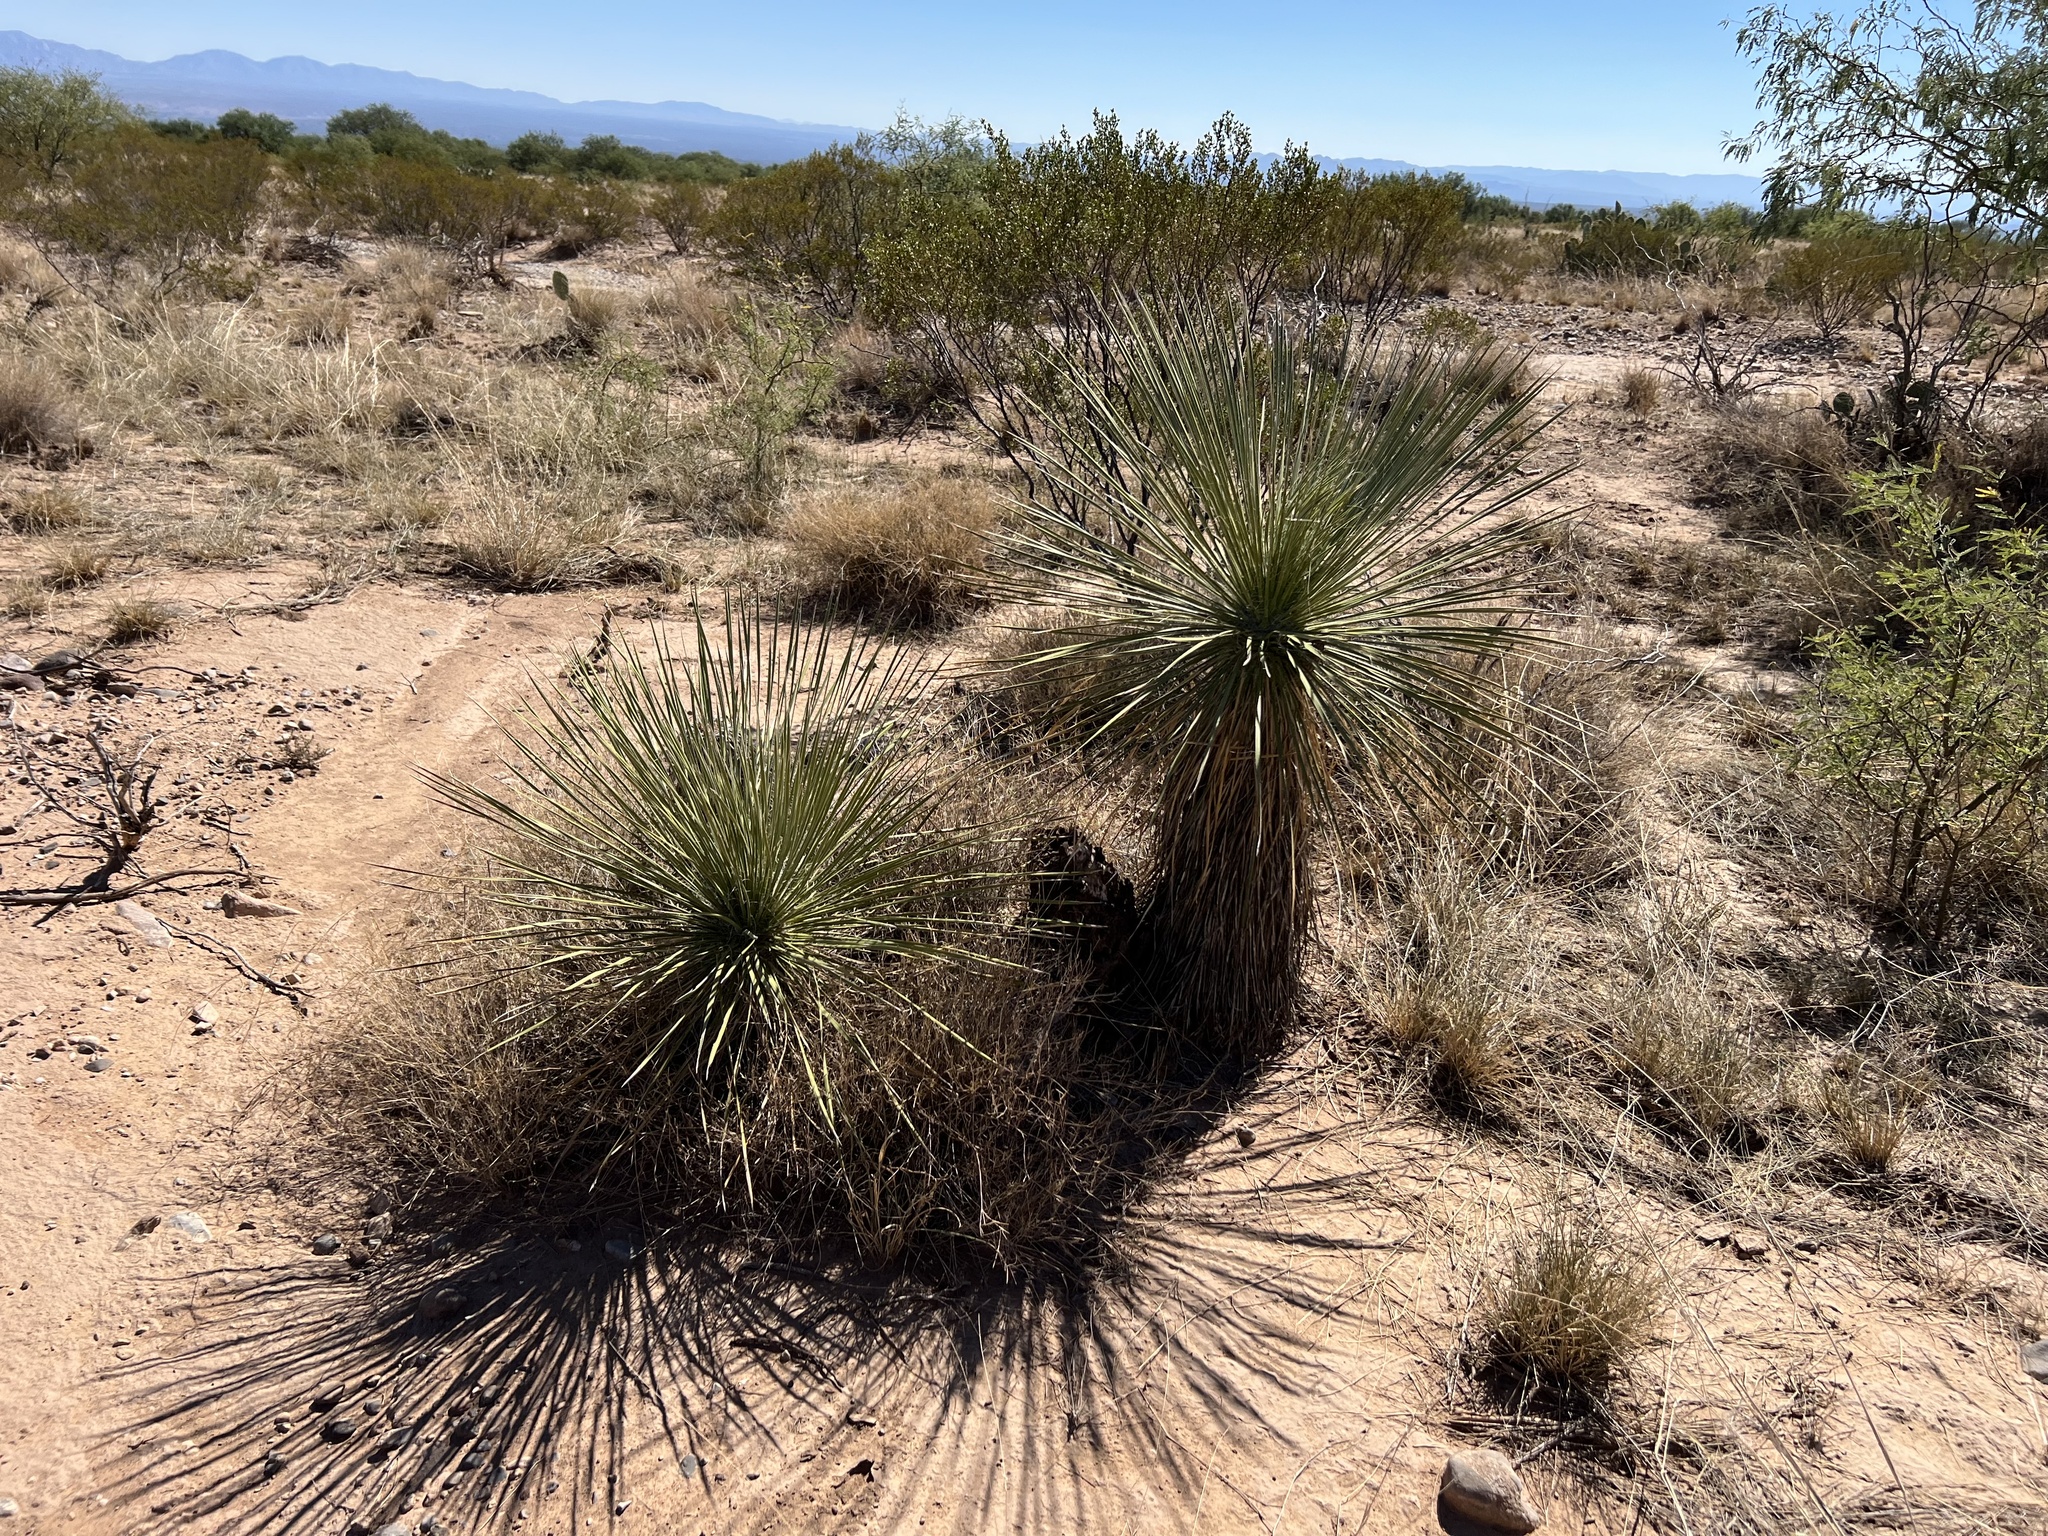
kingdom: Plantae
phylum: Tracheophyta
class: Liliopsida
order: Asparagales
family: Asparagaceae
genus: Yucca
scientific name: Yucca elata
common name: Palmella
